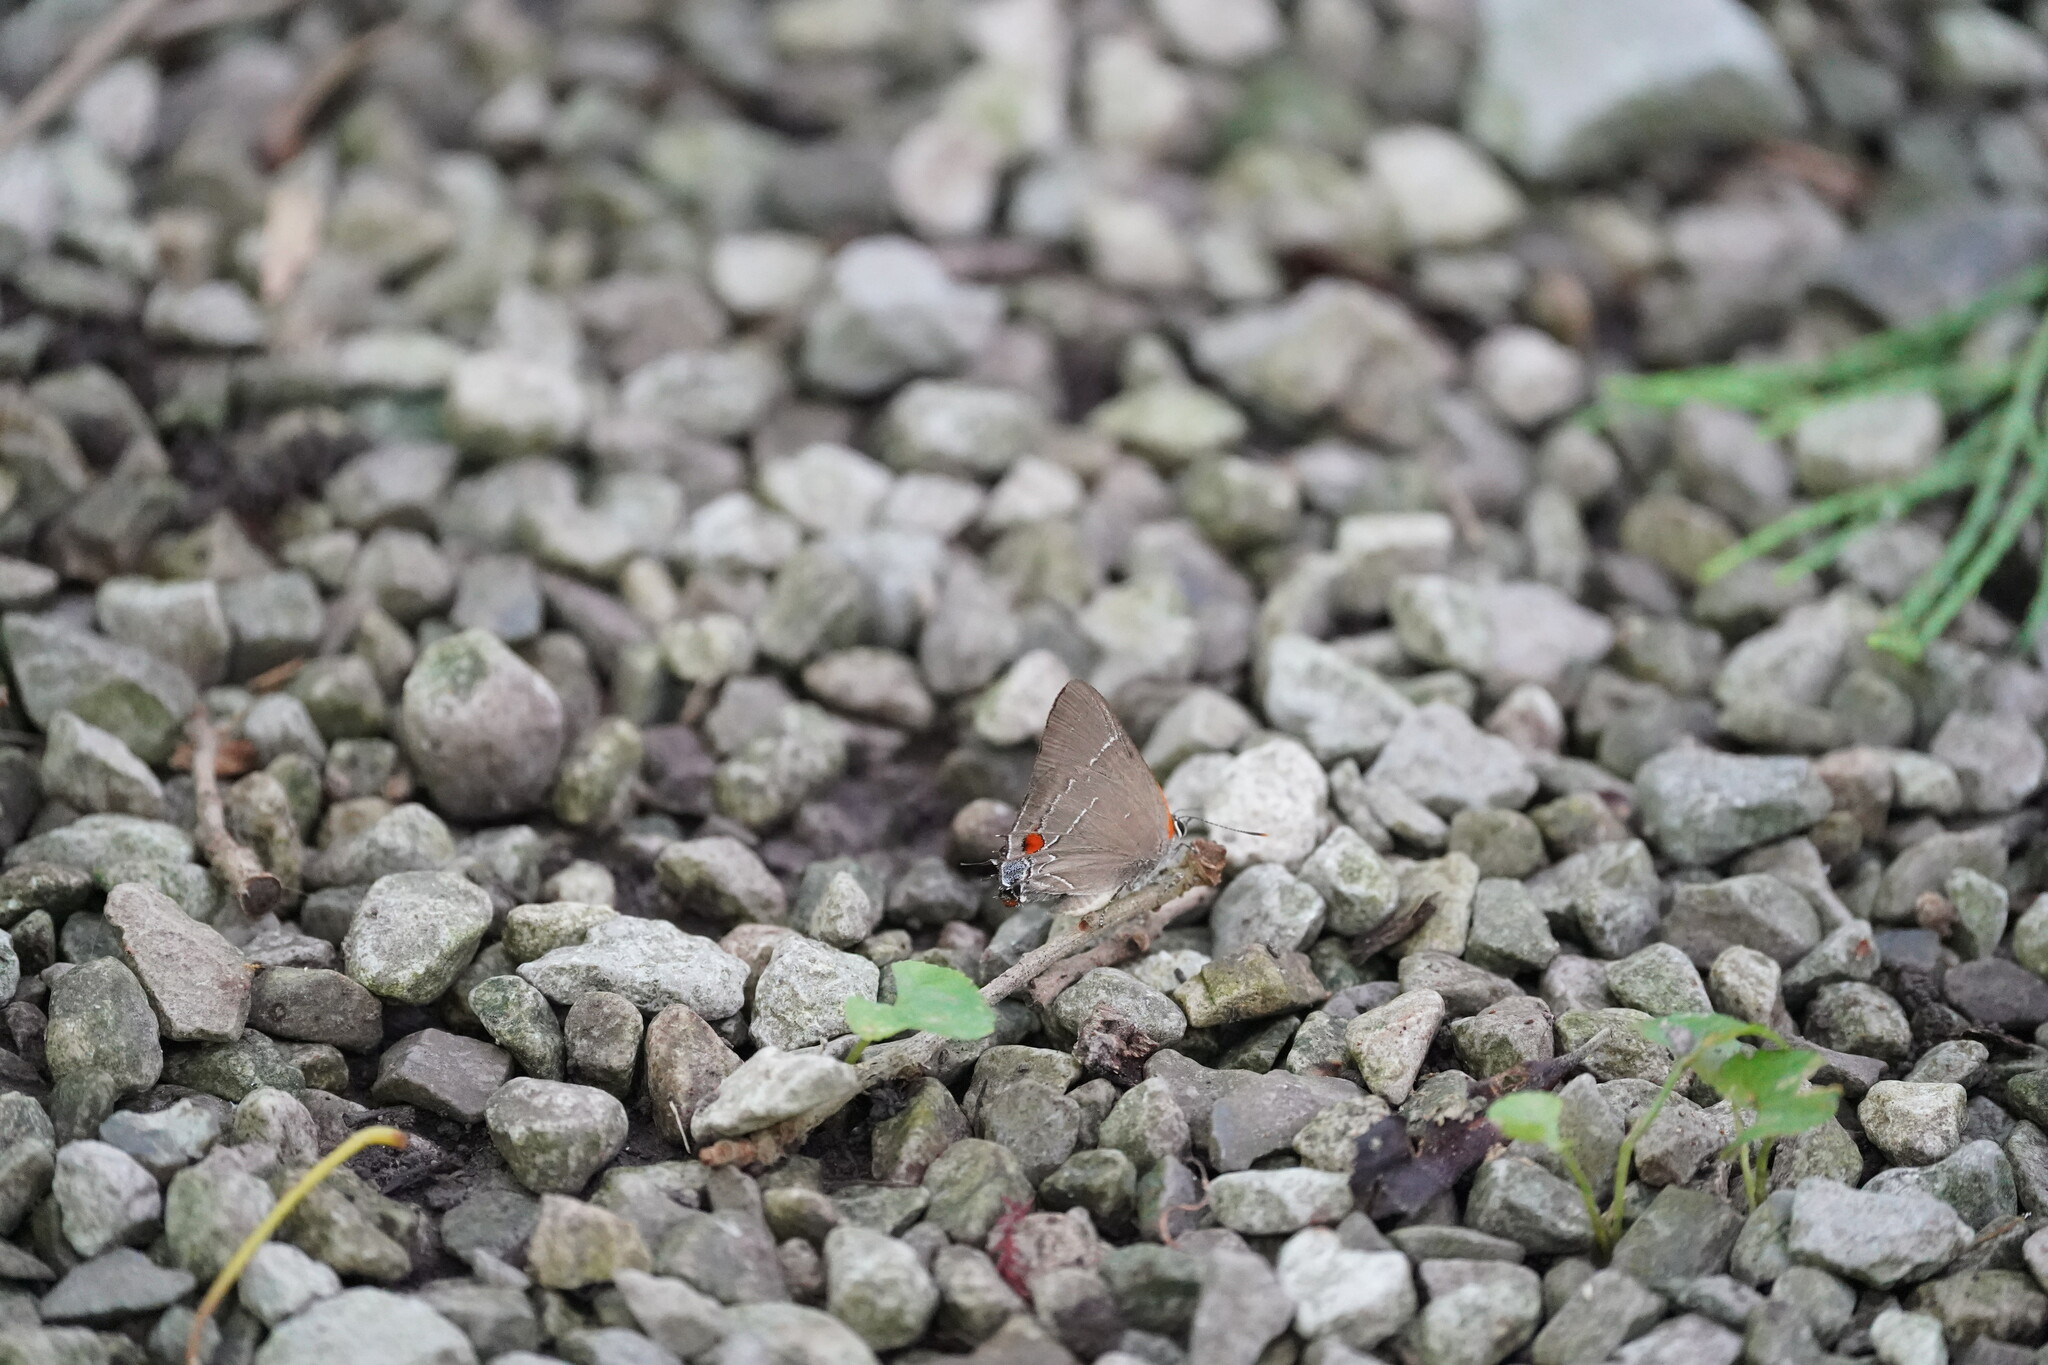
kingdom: Animalia
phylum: Arthropoda
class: Insecta
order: Lepidoptera
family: Lycaenidae
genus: Parrhasius
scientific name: Parrhasius m-album
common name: White m hairstreak
